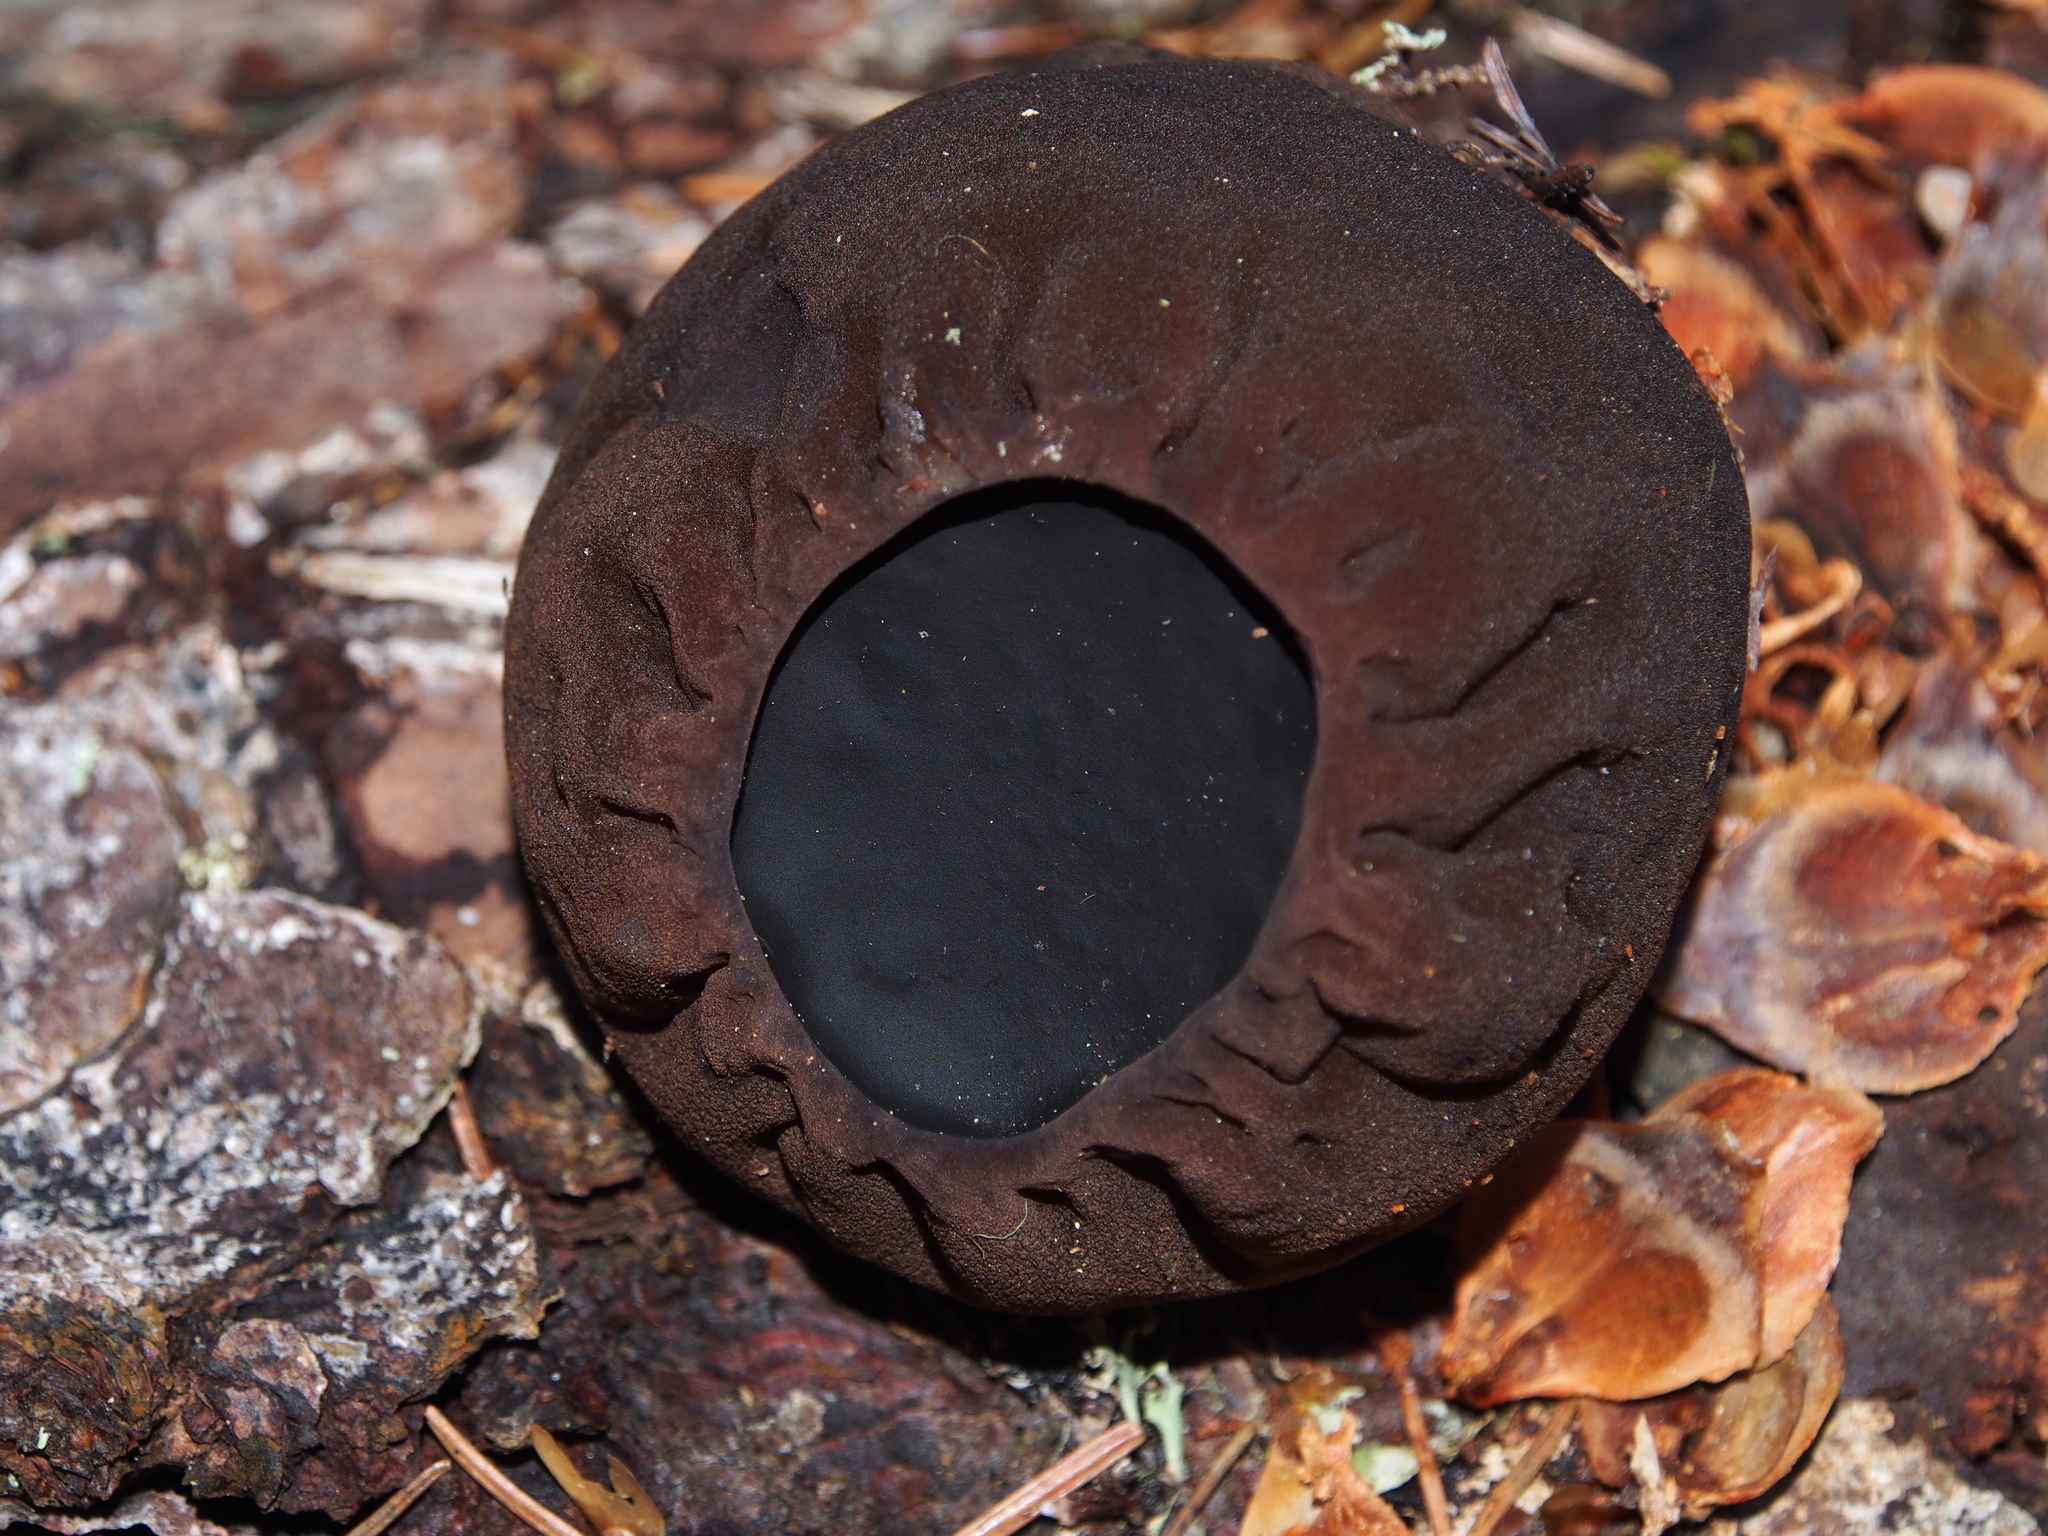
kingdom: Fungi
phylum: Ascomycota
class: Pezizomycetes
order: Pezizales
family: Sarcosomataceae
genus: Sarcosoma
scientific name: Sarcosoma globosum
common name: Charred-pancake cup
